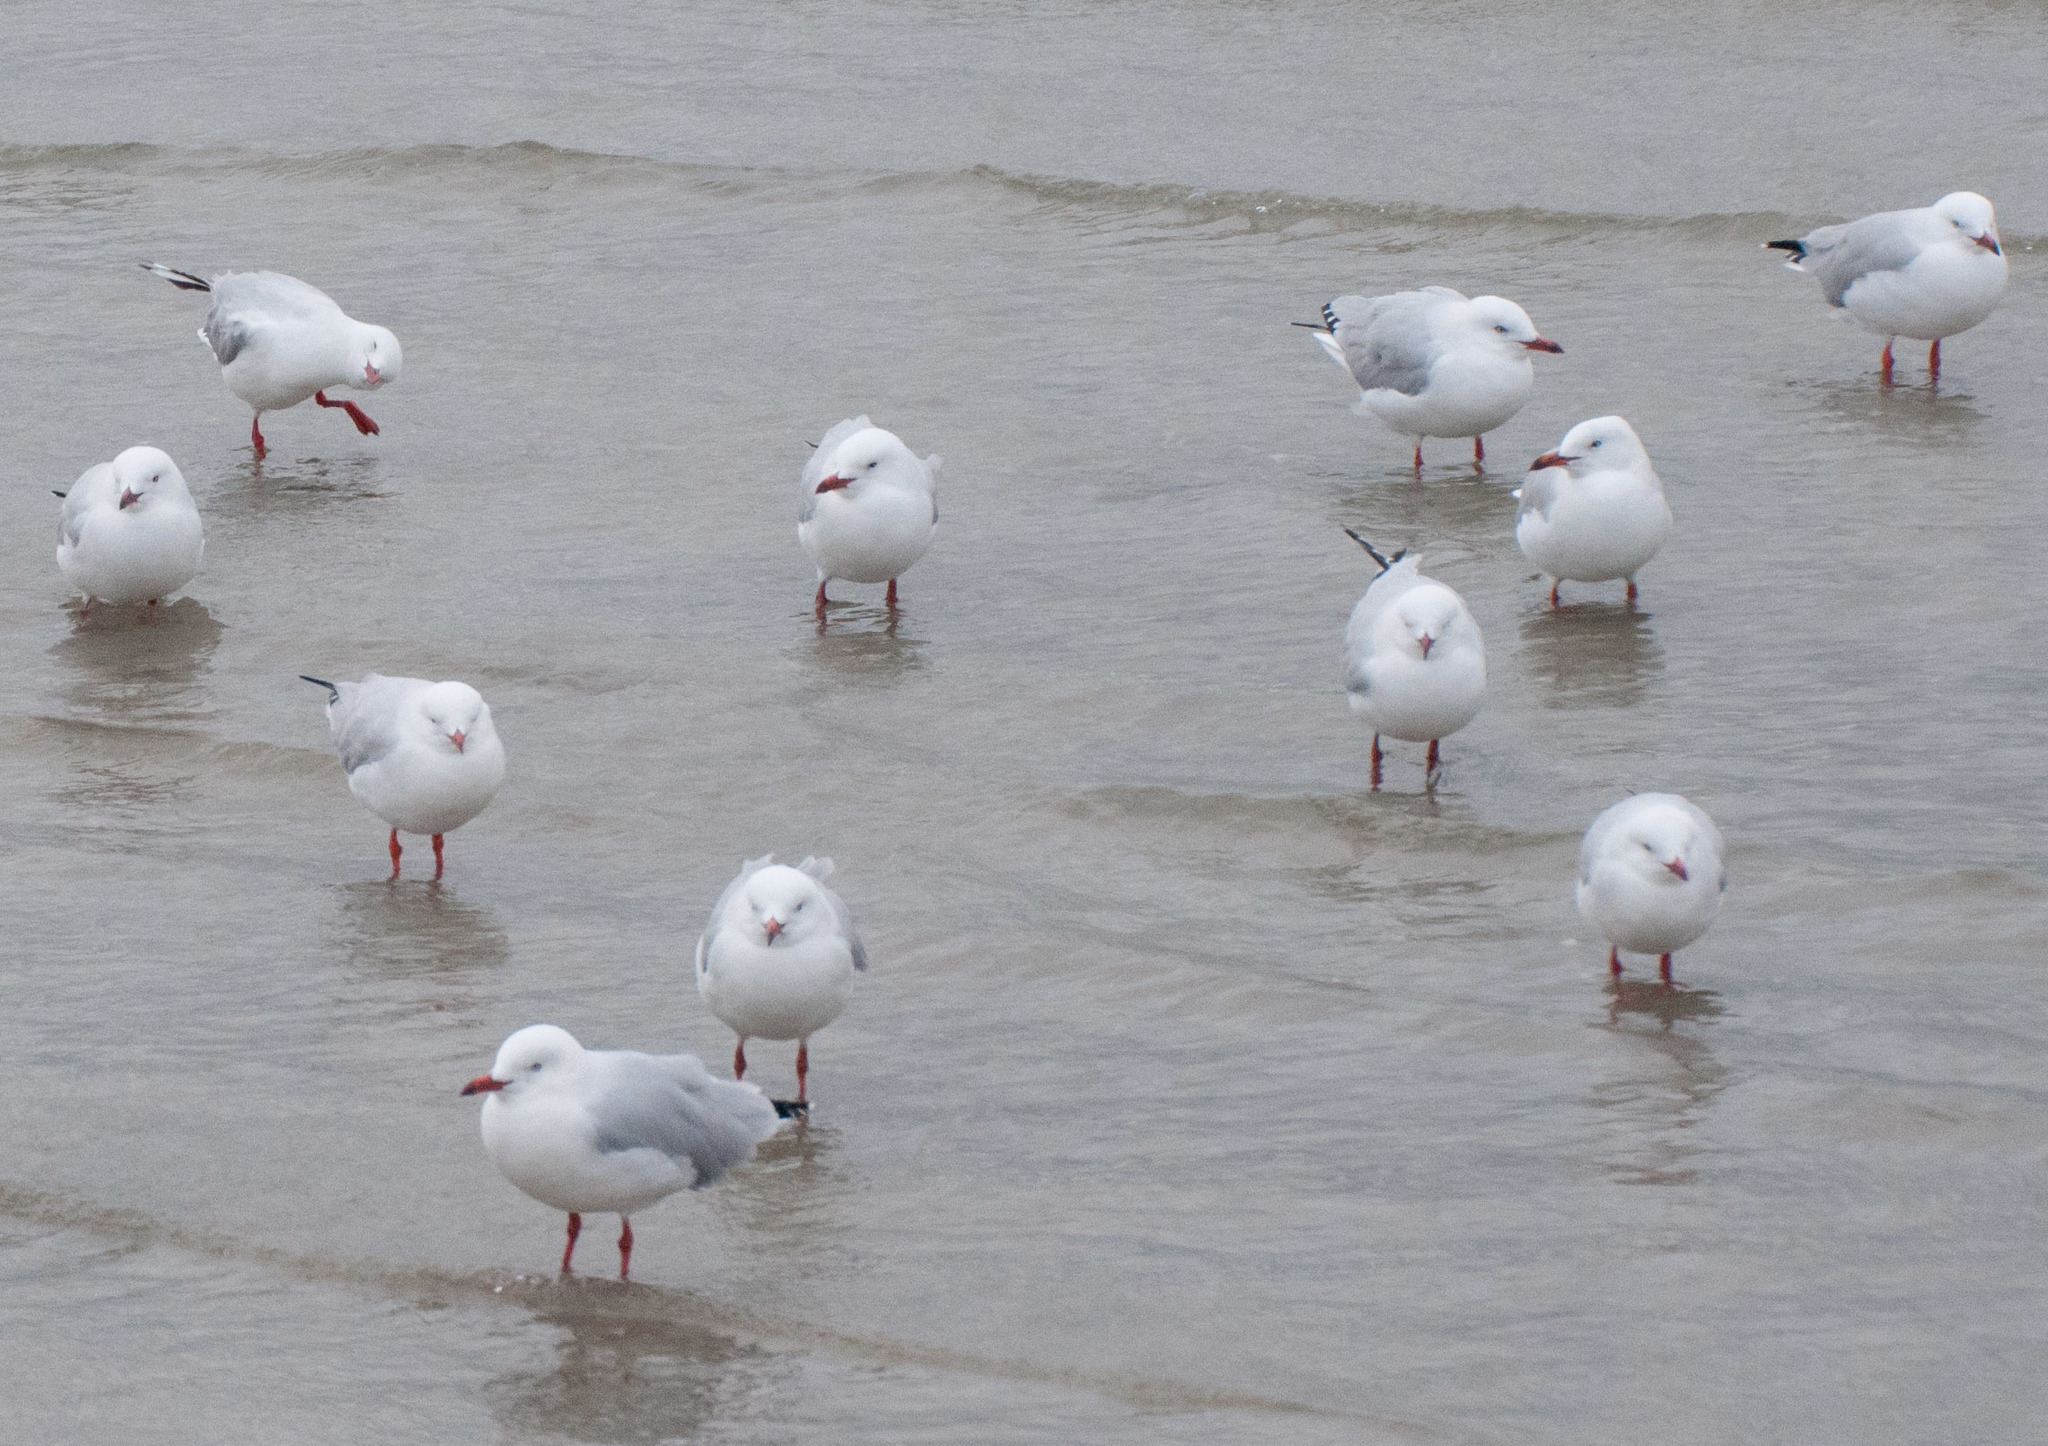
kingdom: Animalia
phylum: Chordata
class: Aves
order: Charadriiformes
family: Laridae
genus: Chroicocephalus
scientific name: Chroicocephalus novaehollandiae
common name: Silver gull
